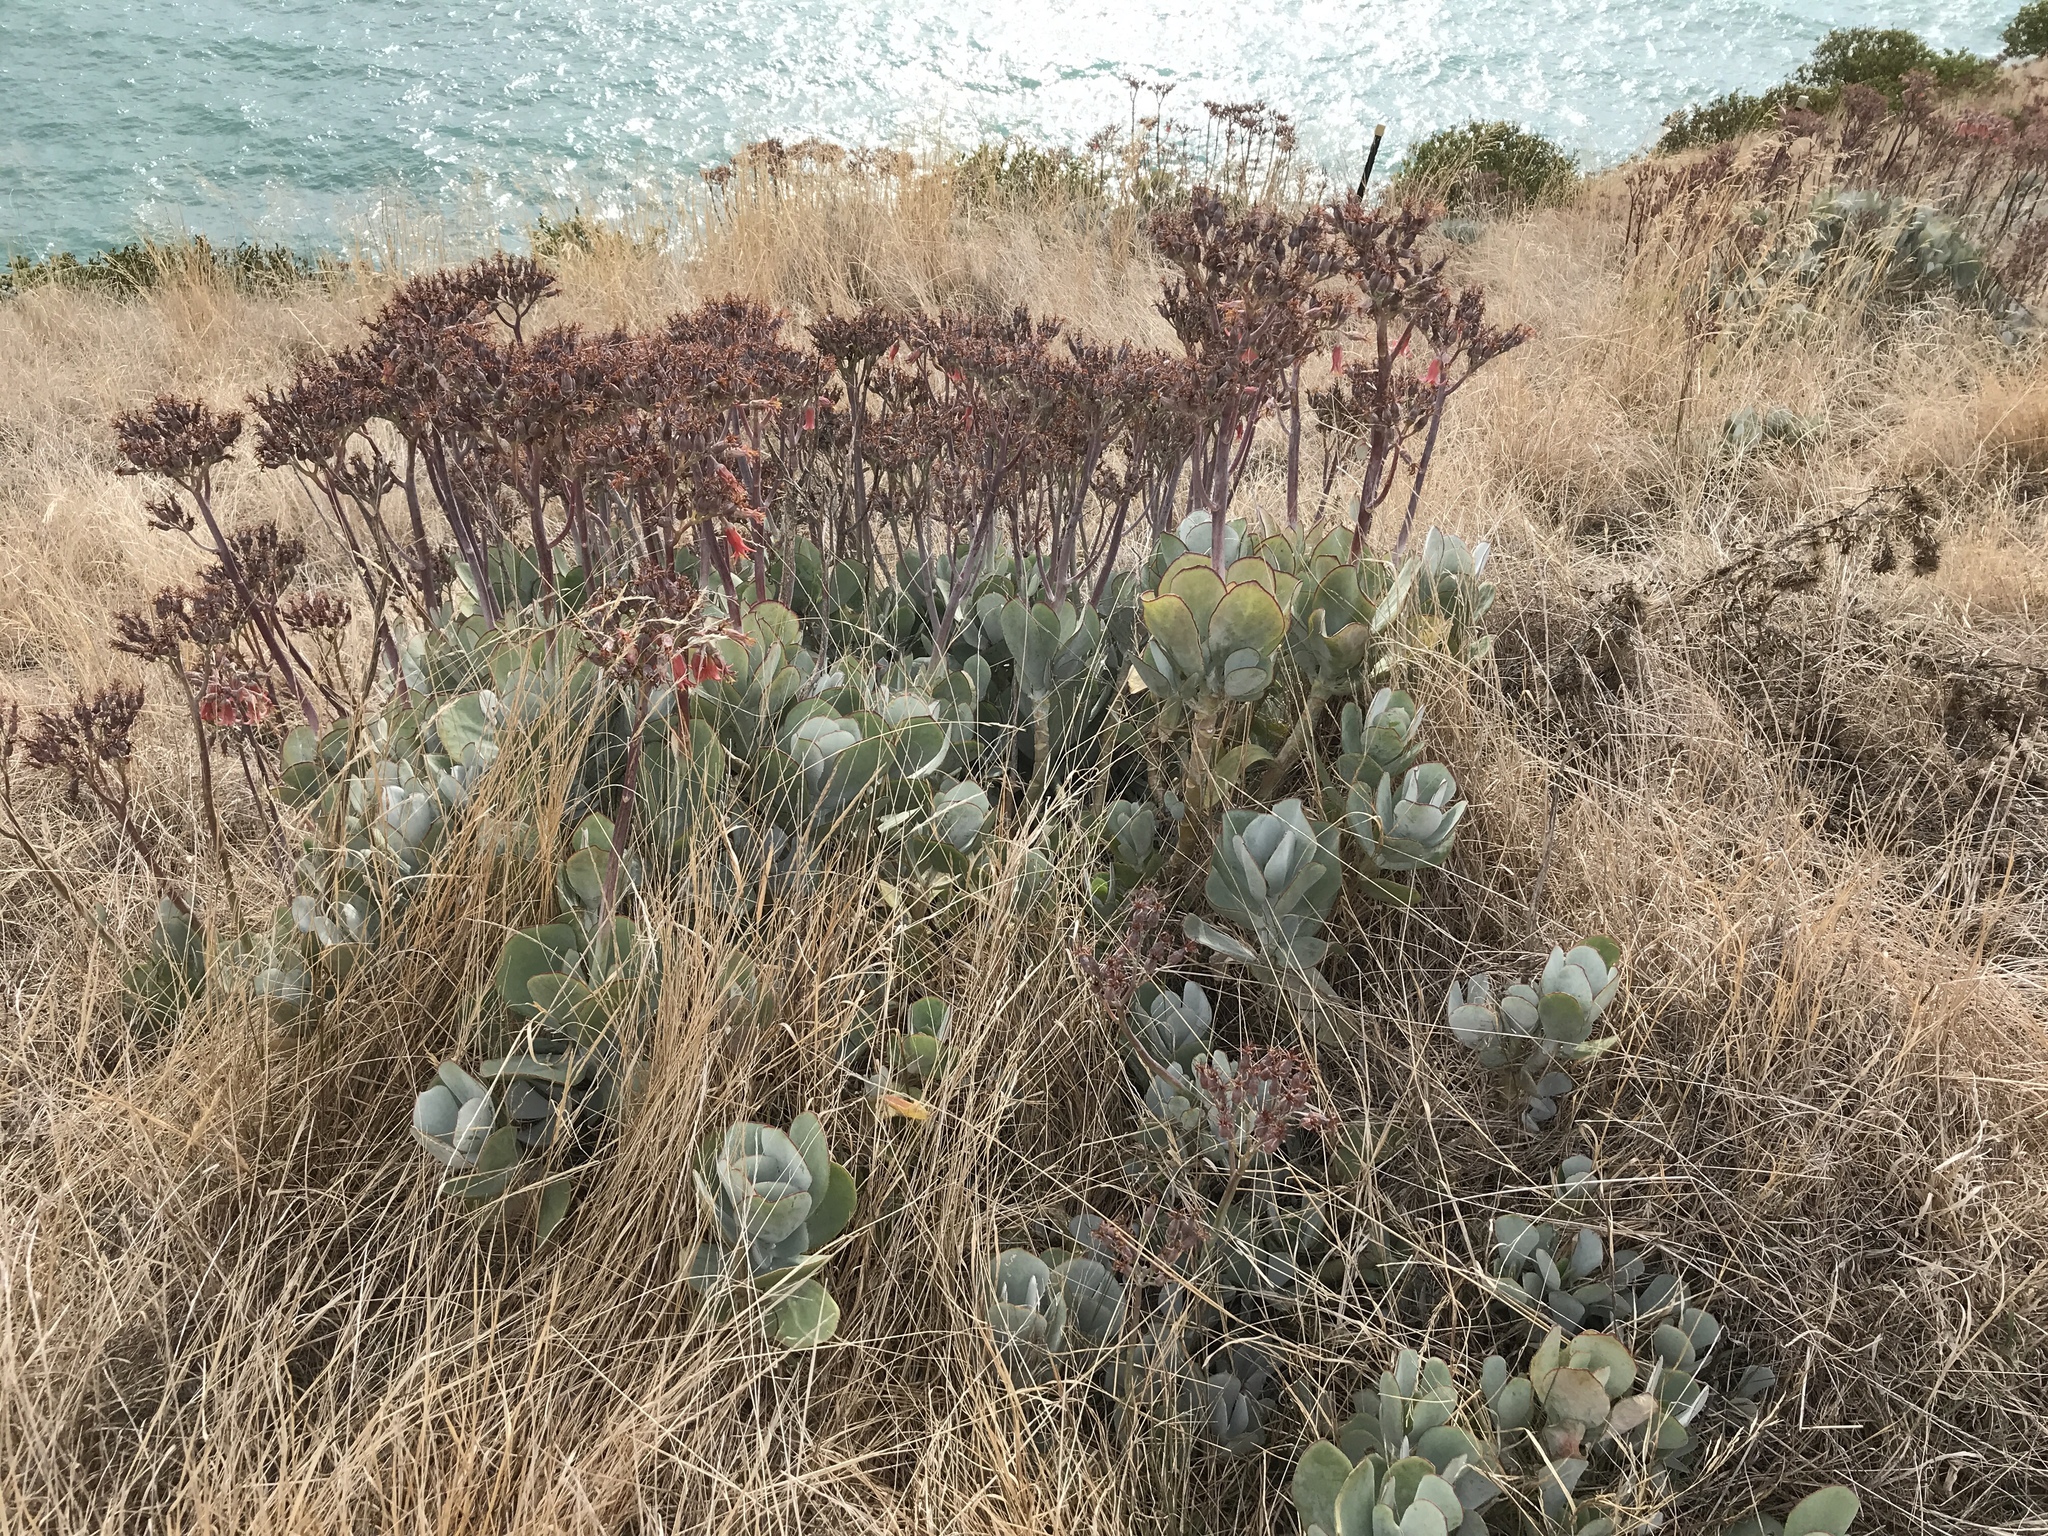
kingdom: Plantae
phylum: Tracheophyta
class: Magnoliopsida
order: Saxifragales
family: Crassulaceae
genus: Cotyledon
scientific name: Cotyledon orbiculata
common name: Pig's ear
